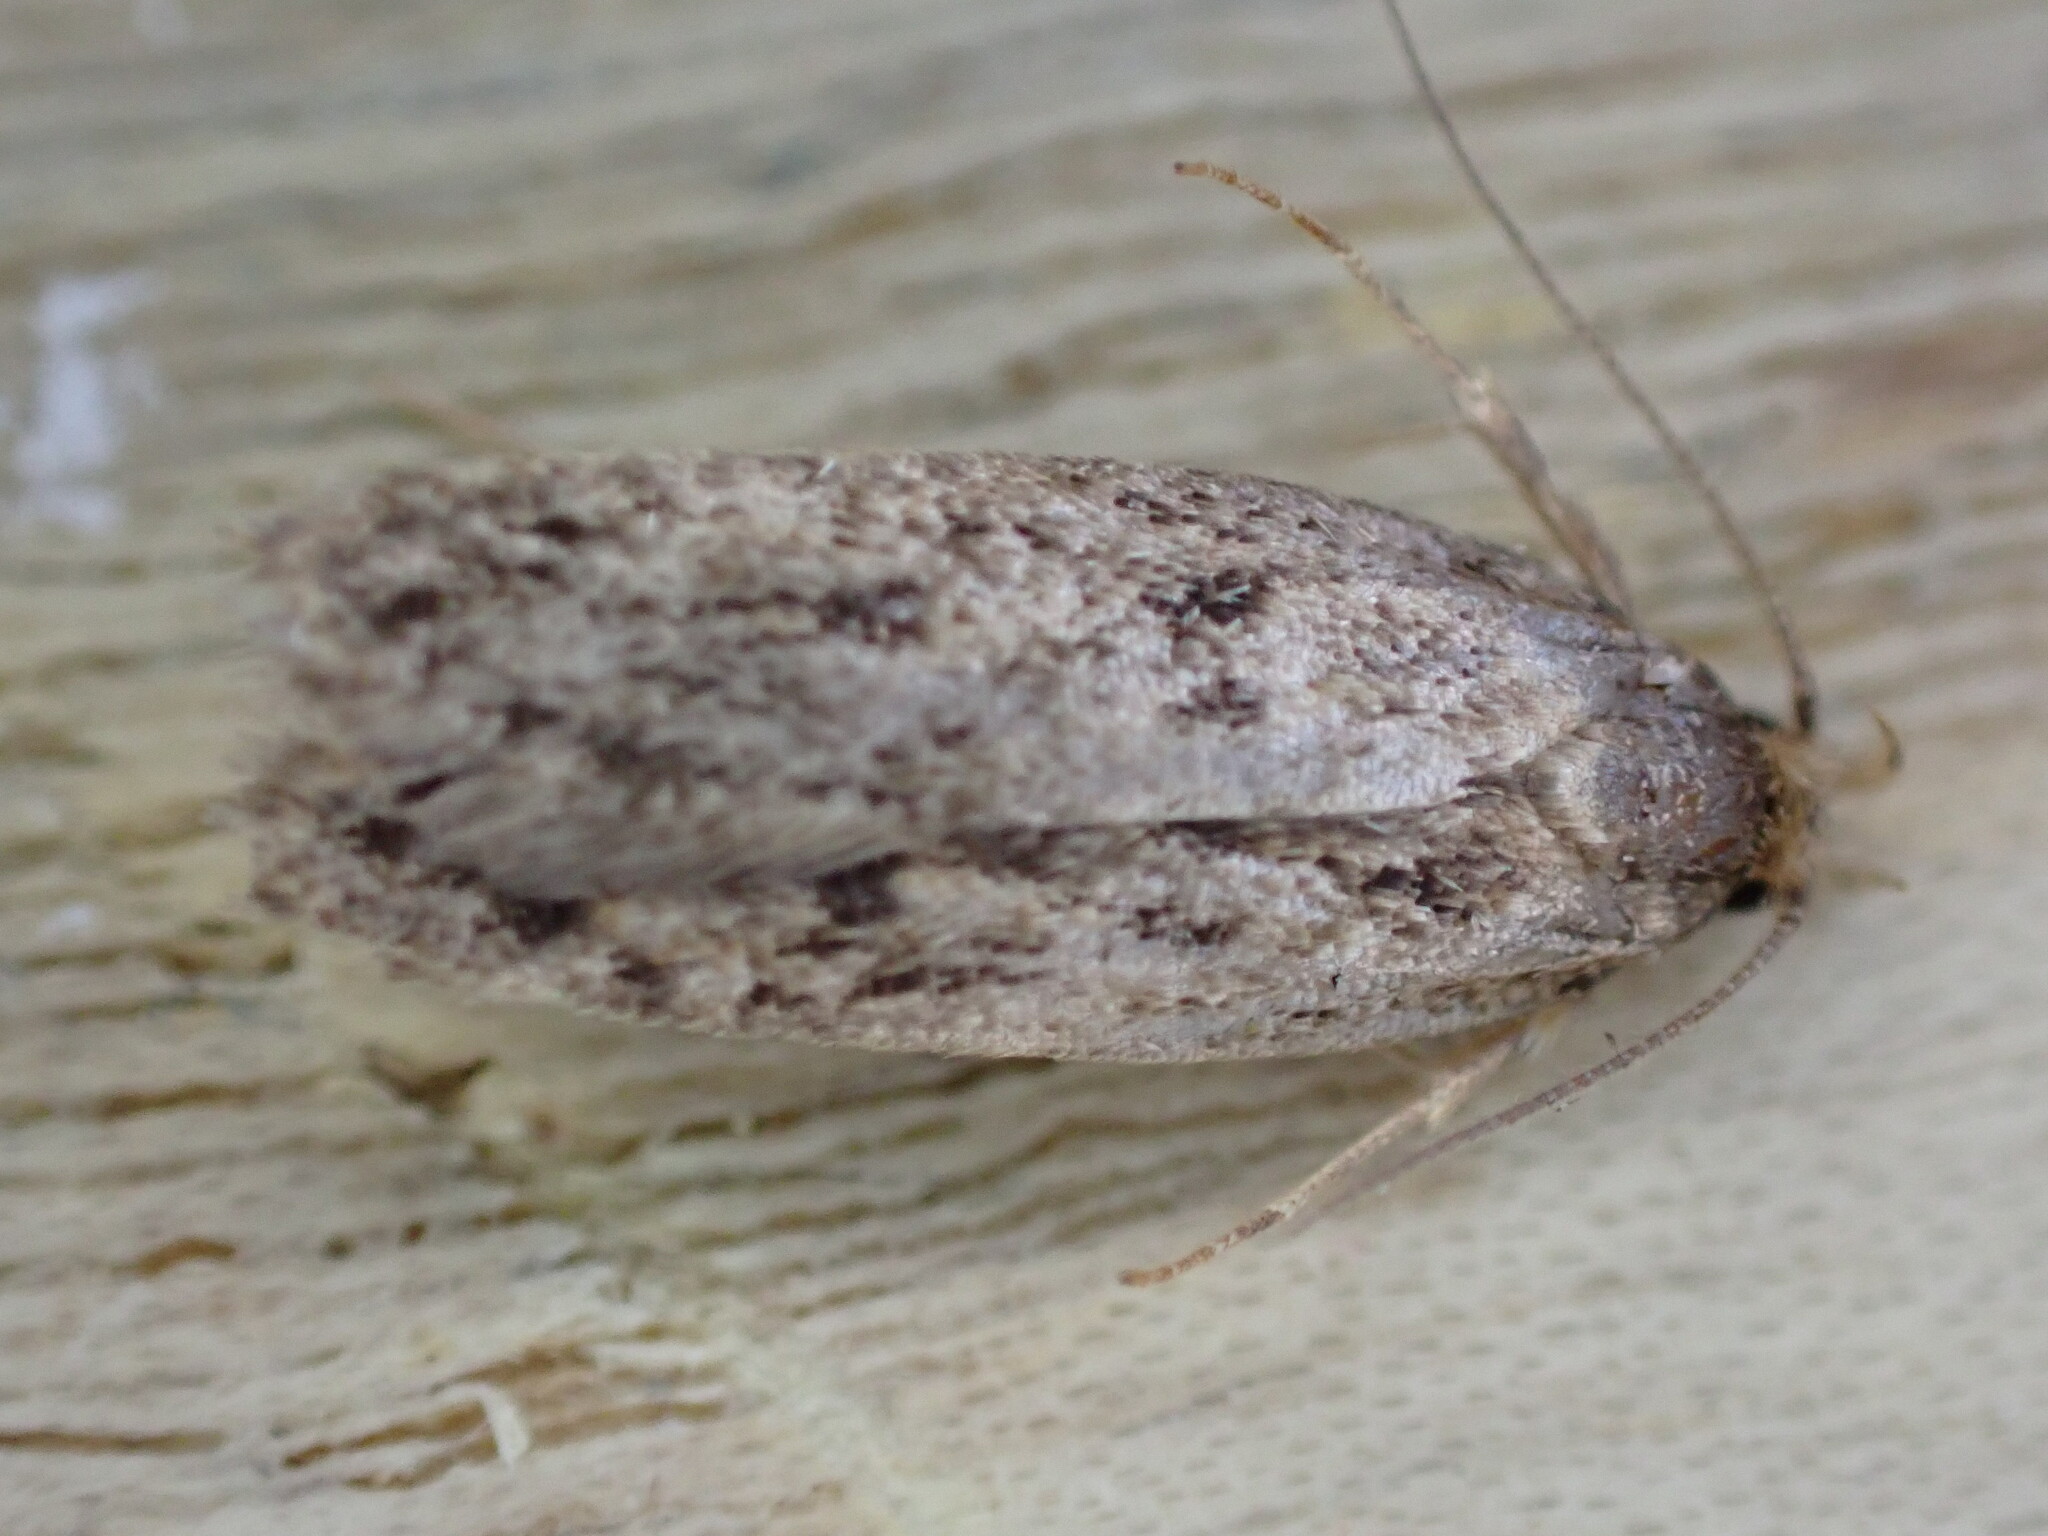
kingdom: Animalia
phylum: Arthropoda
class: Insecta
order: Lepidoptera
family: Oecophoridae
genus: Hofmannophila
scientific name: Hofmannophila pseudospretella
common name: Brown house moth
